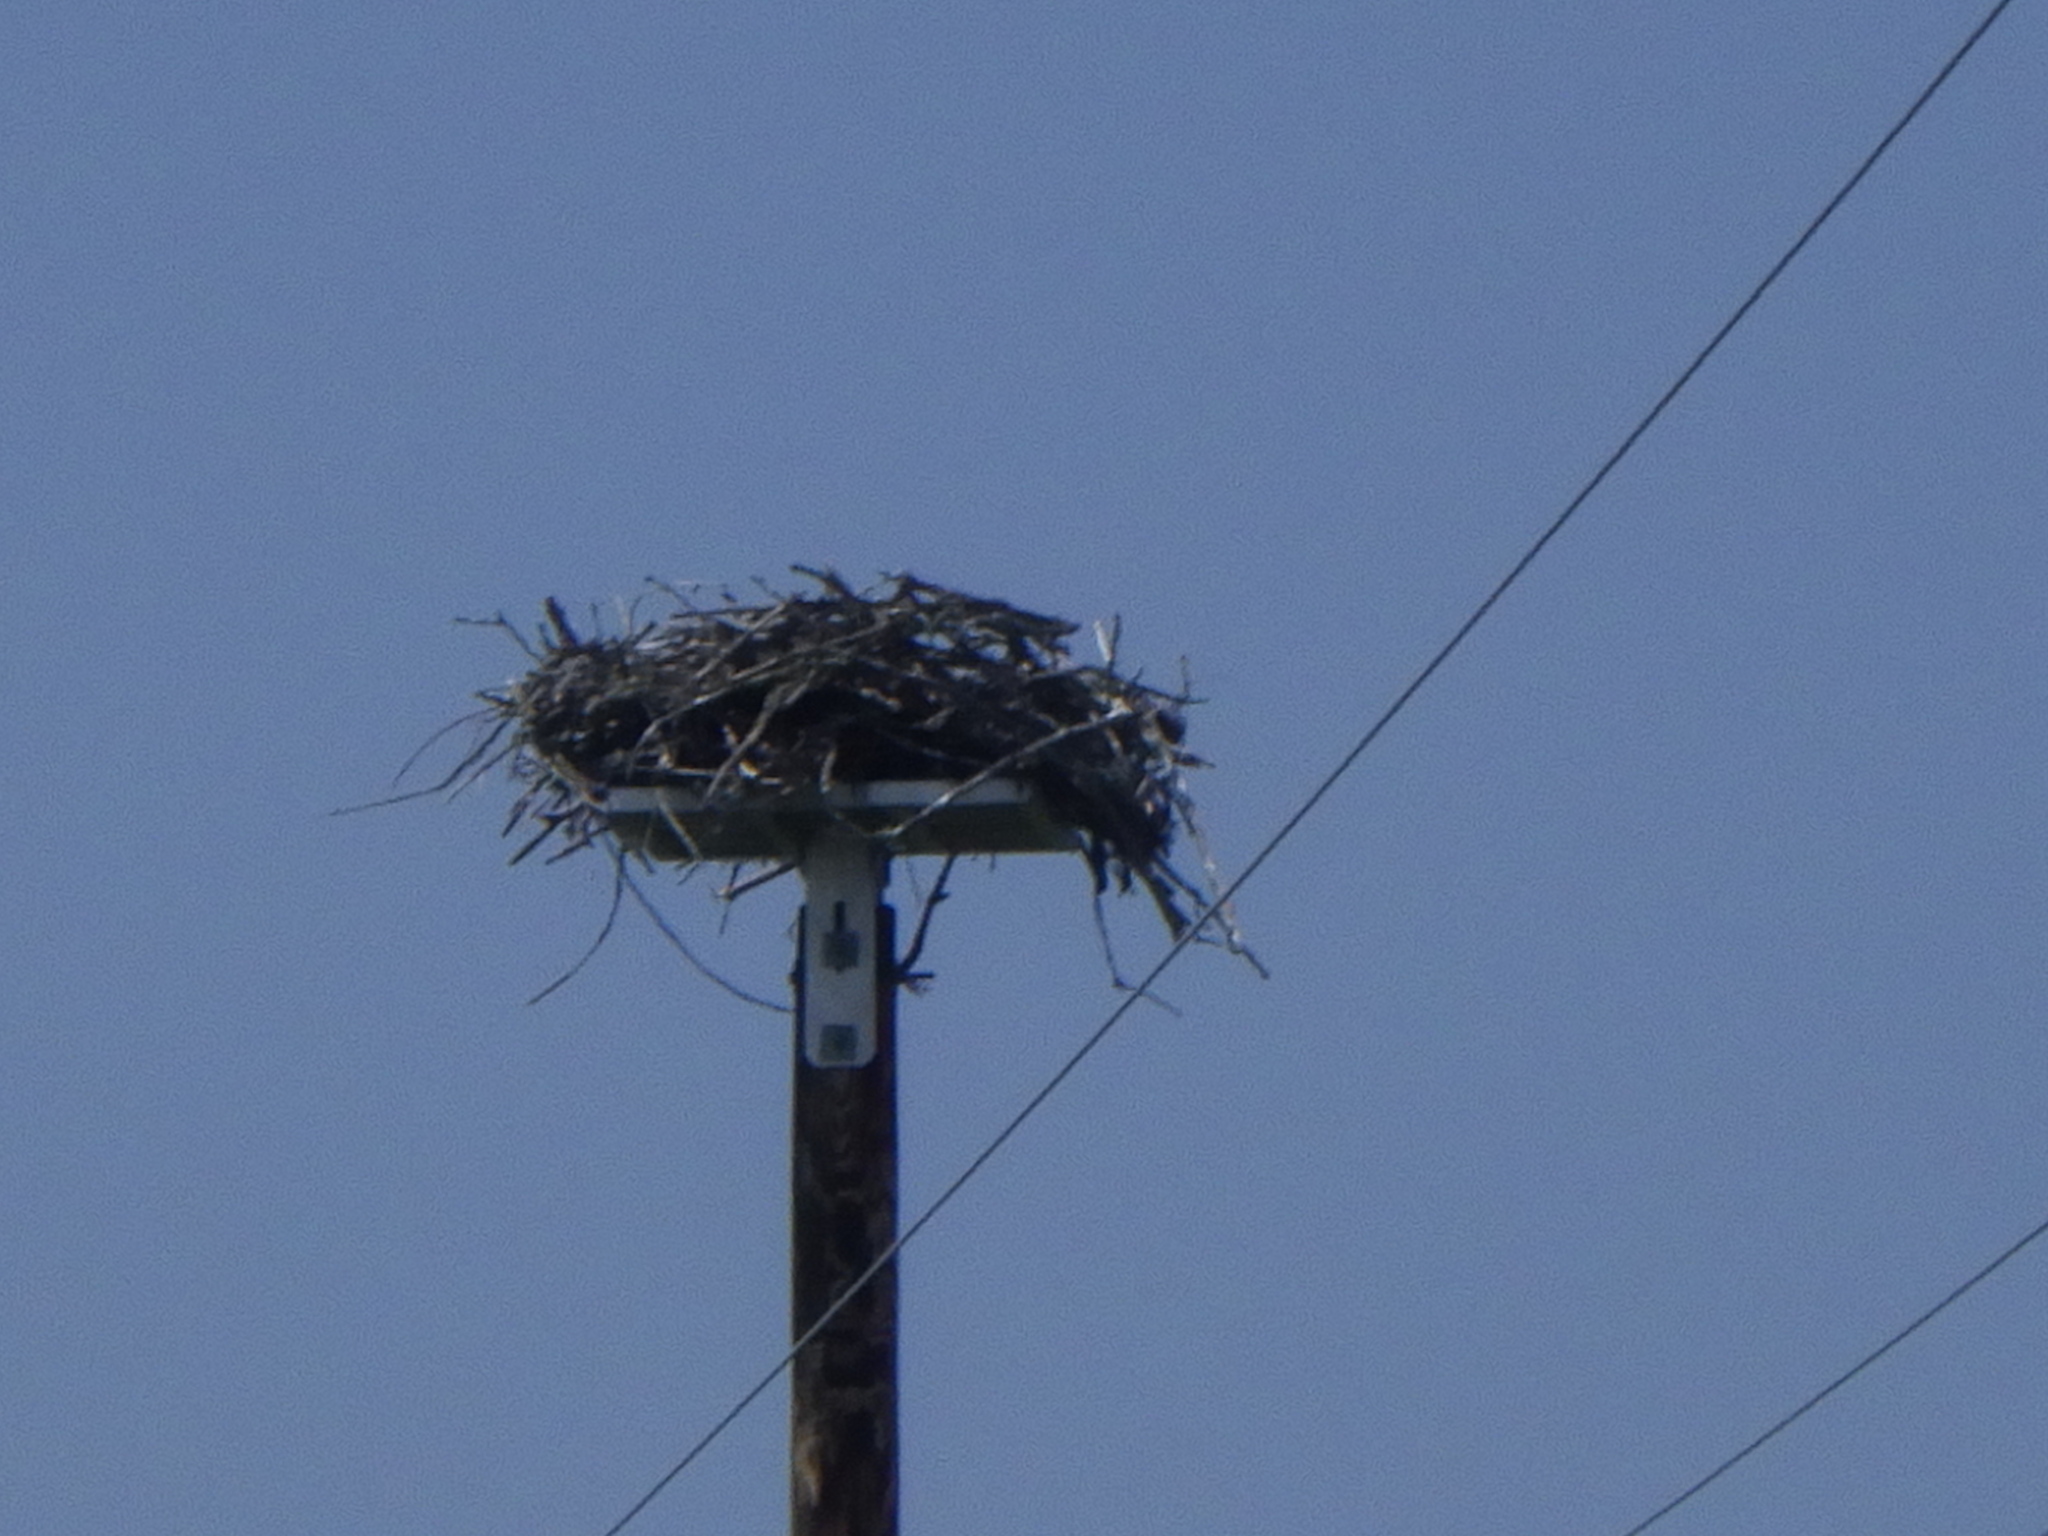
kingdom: Animalia
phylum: Chordata
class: Aves
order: Accipitriformes
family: Pandionidae
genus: Pandion
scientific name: Pandion haliaetus
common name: Osprey
